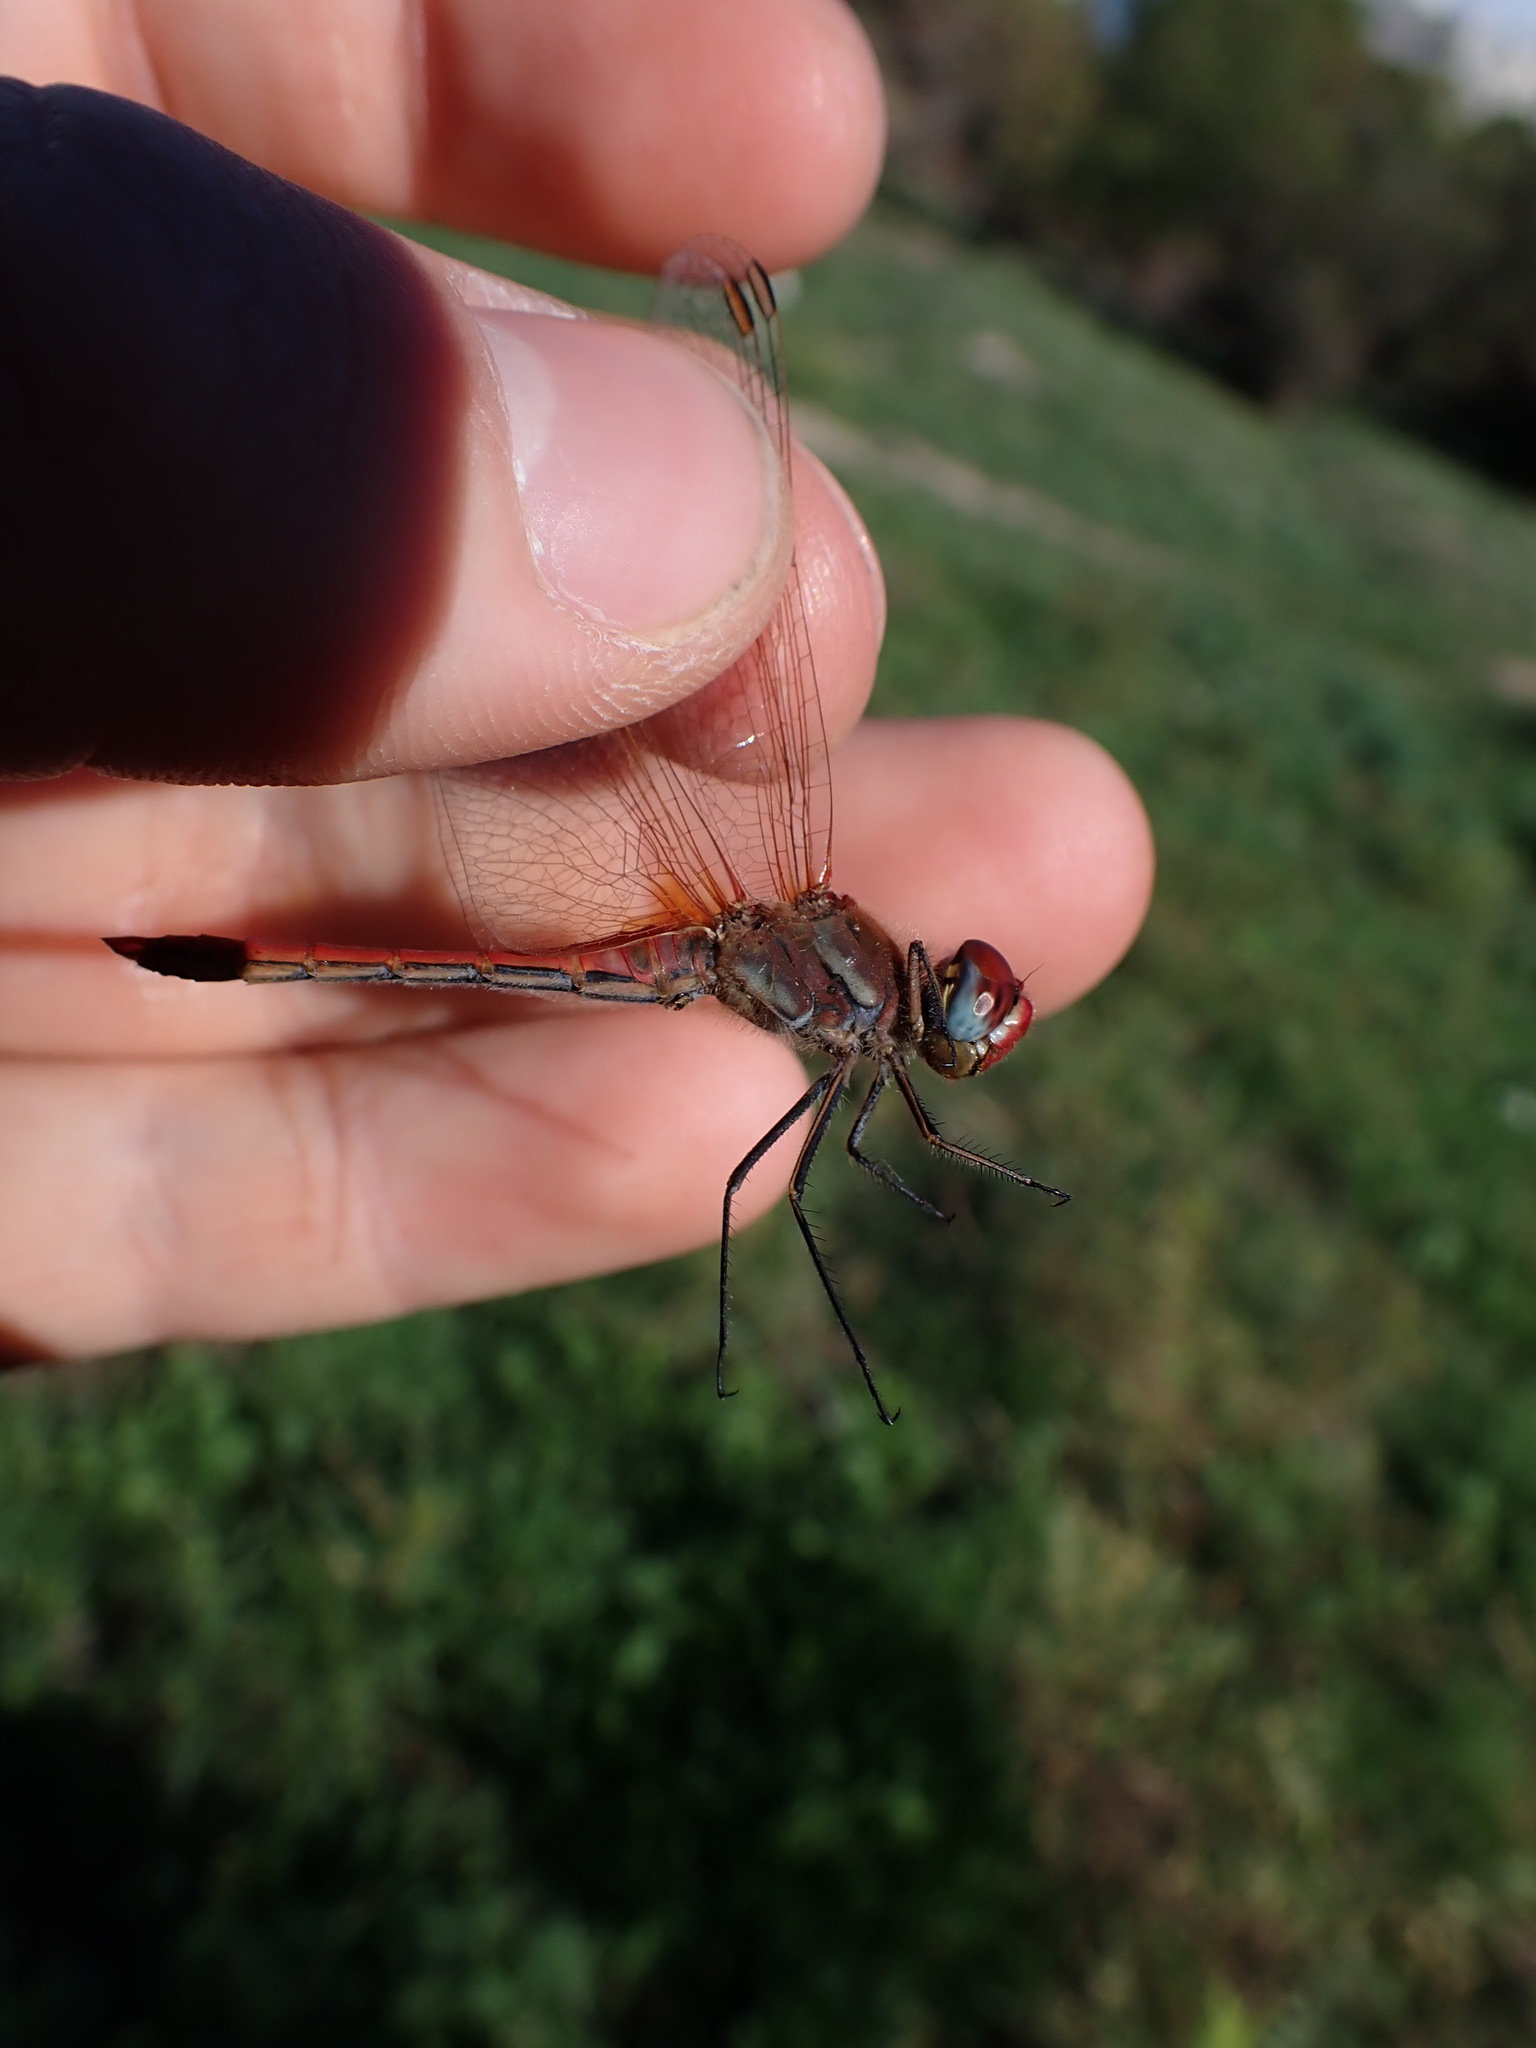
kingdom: Animalia
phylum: Arthropoda
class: Insecta
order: Odonata
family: Libellulidae
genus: Sympetrum
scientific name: Sympetrum fonscolombii
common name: Red-veined darter
